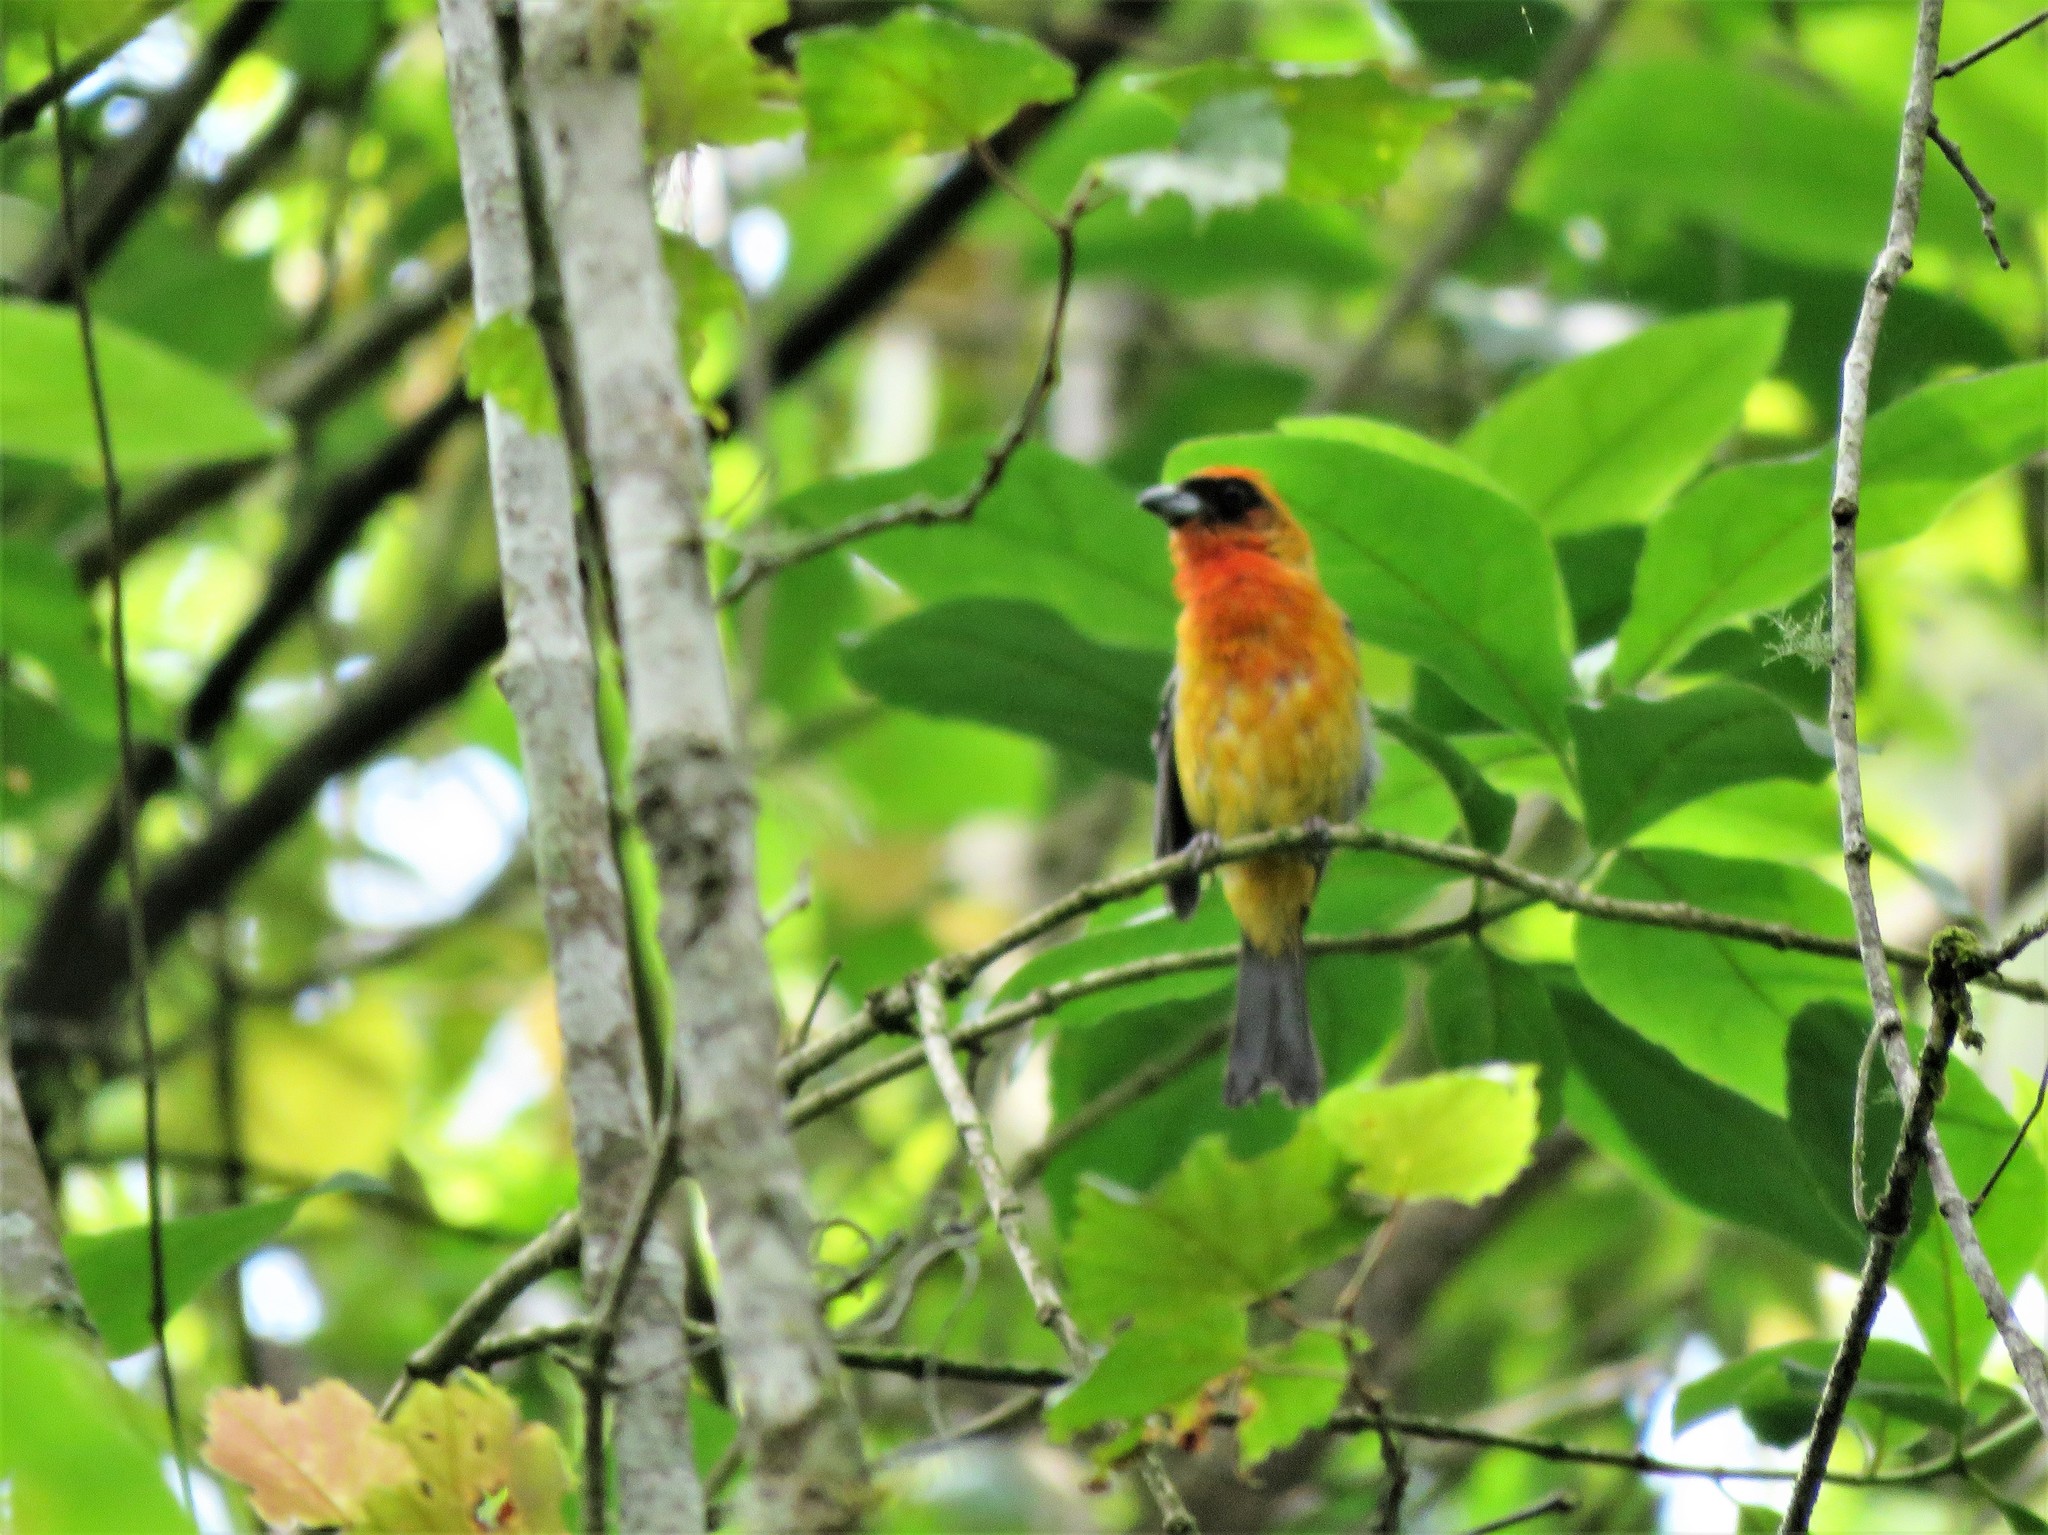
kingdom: Animalia
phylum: Chordata
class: Aves
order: Passeriformes
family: Cardinalidae
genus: Piranga
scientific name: Piranga leucoptera
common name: White-winged tanager
